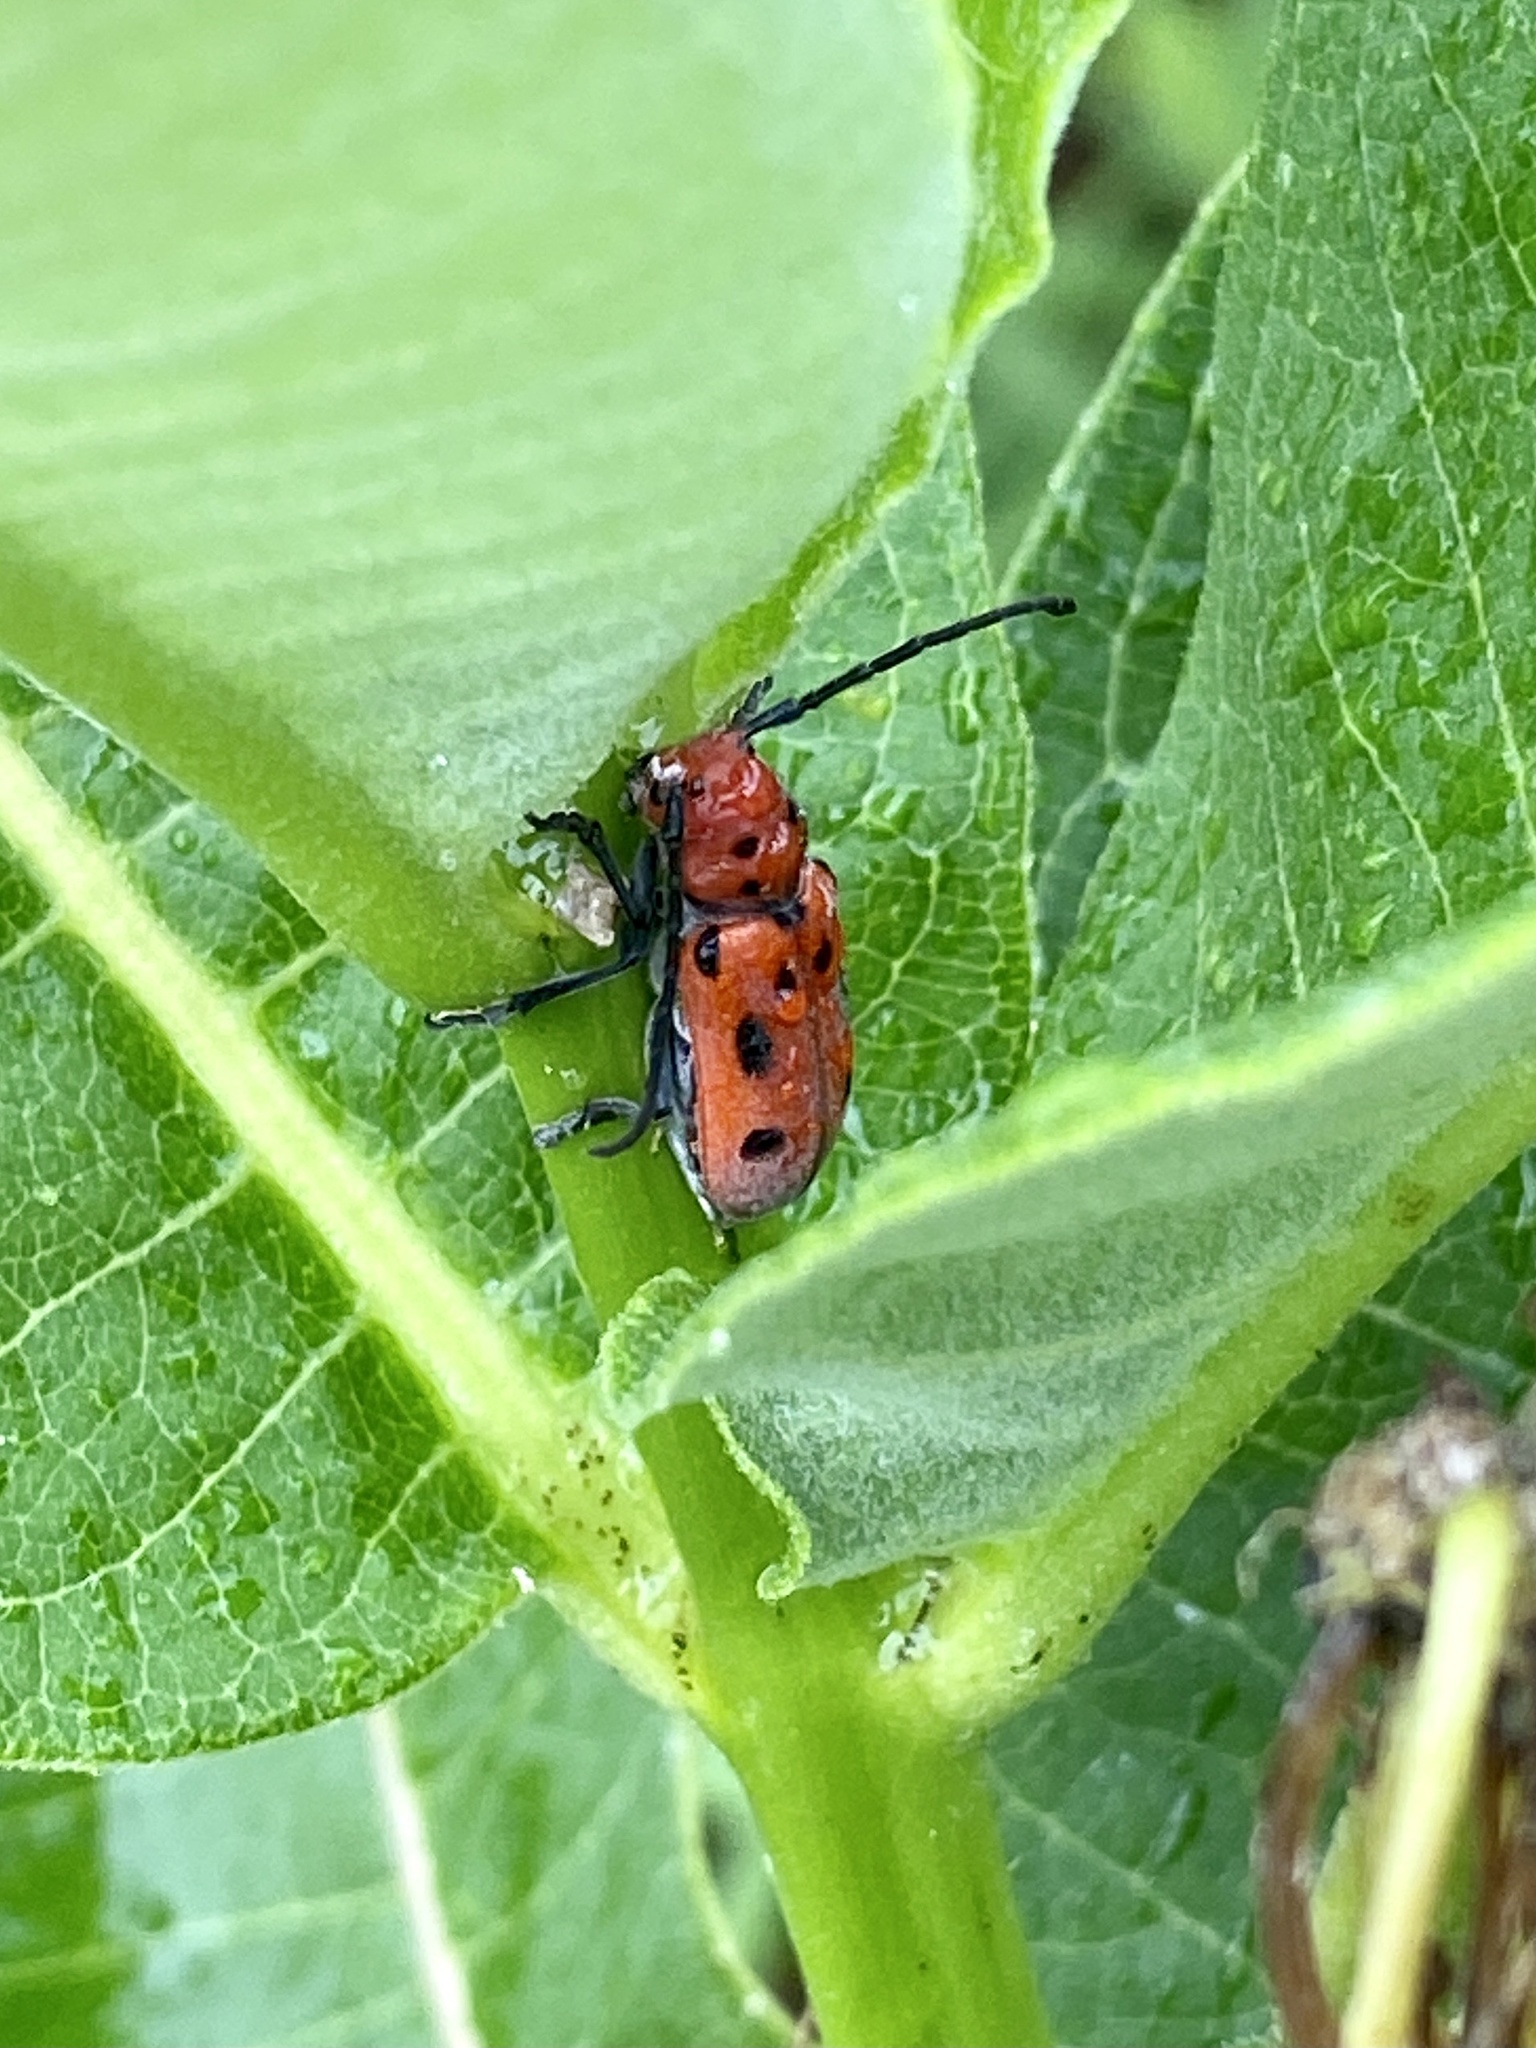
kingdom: Animalia
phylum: Arthropoda
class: Insecta
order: Coleoptera
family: Cerambycidae
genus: Tetraopes
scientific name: Tetraopes tetrophthalmus
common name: Red milkweed beetle
